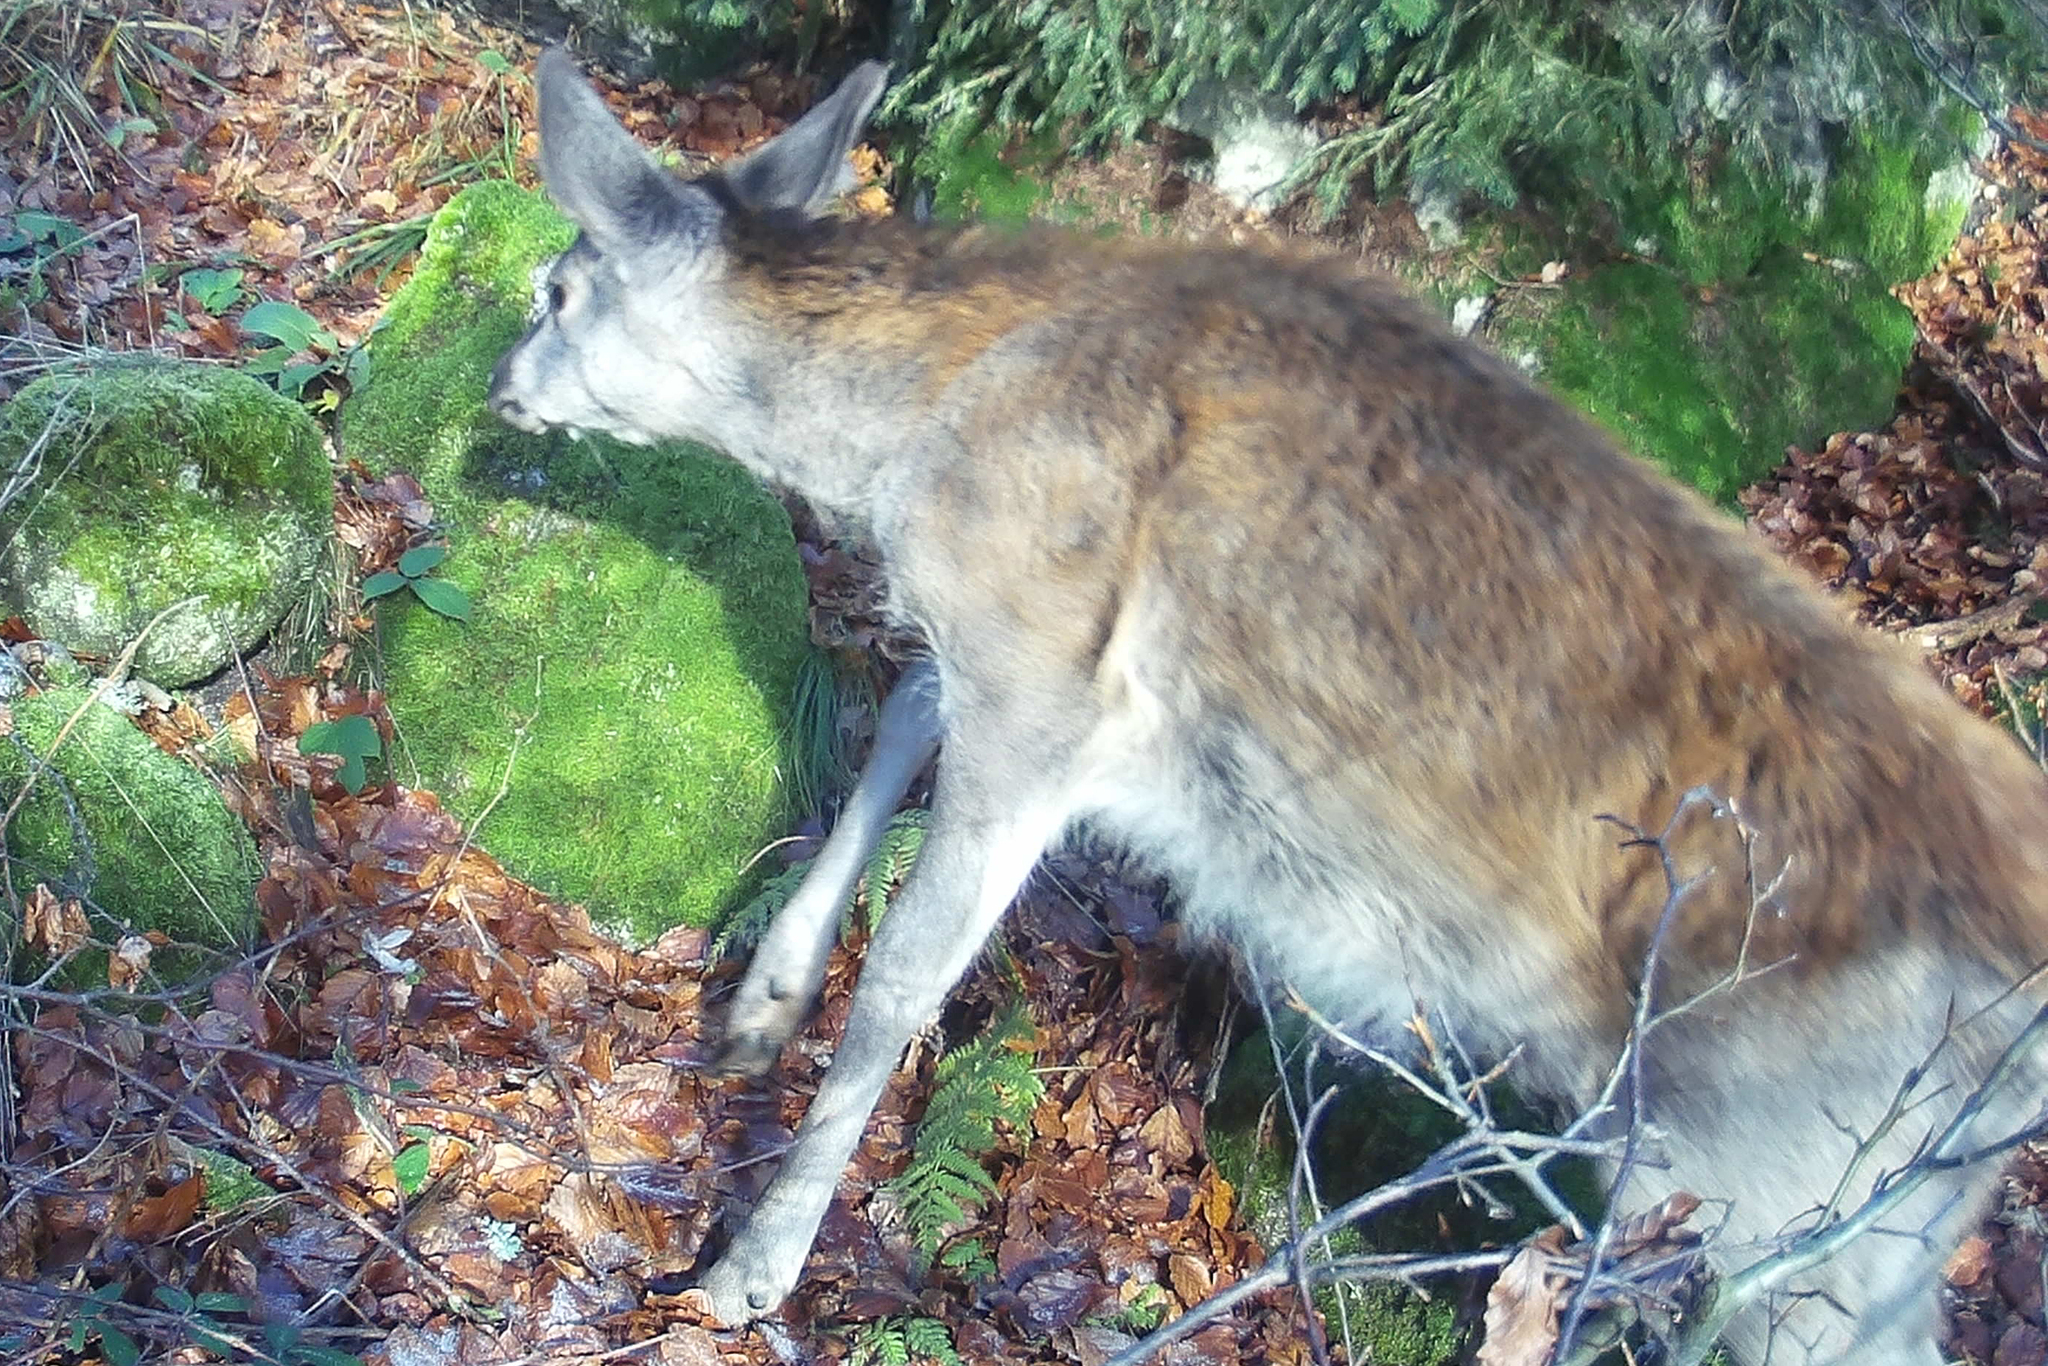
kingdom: Animalia
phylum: Chordata
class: Mammalia
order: Artiodactyla
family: Cervidae
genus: Cervus
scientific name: Cervus elaphus
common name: Red deer
